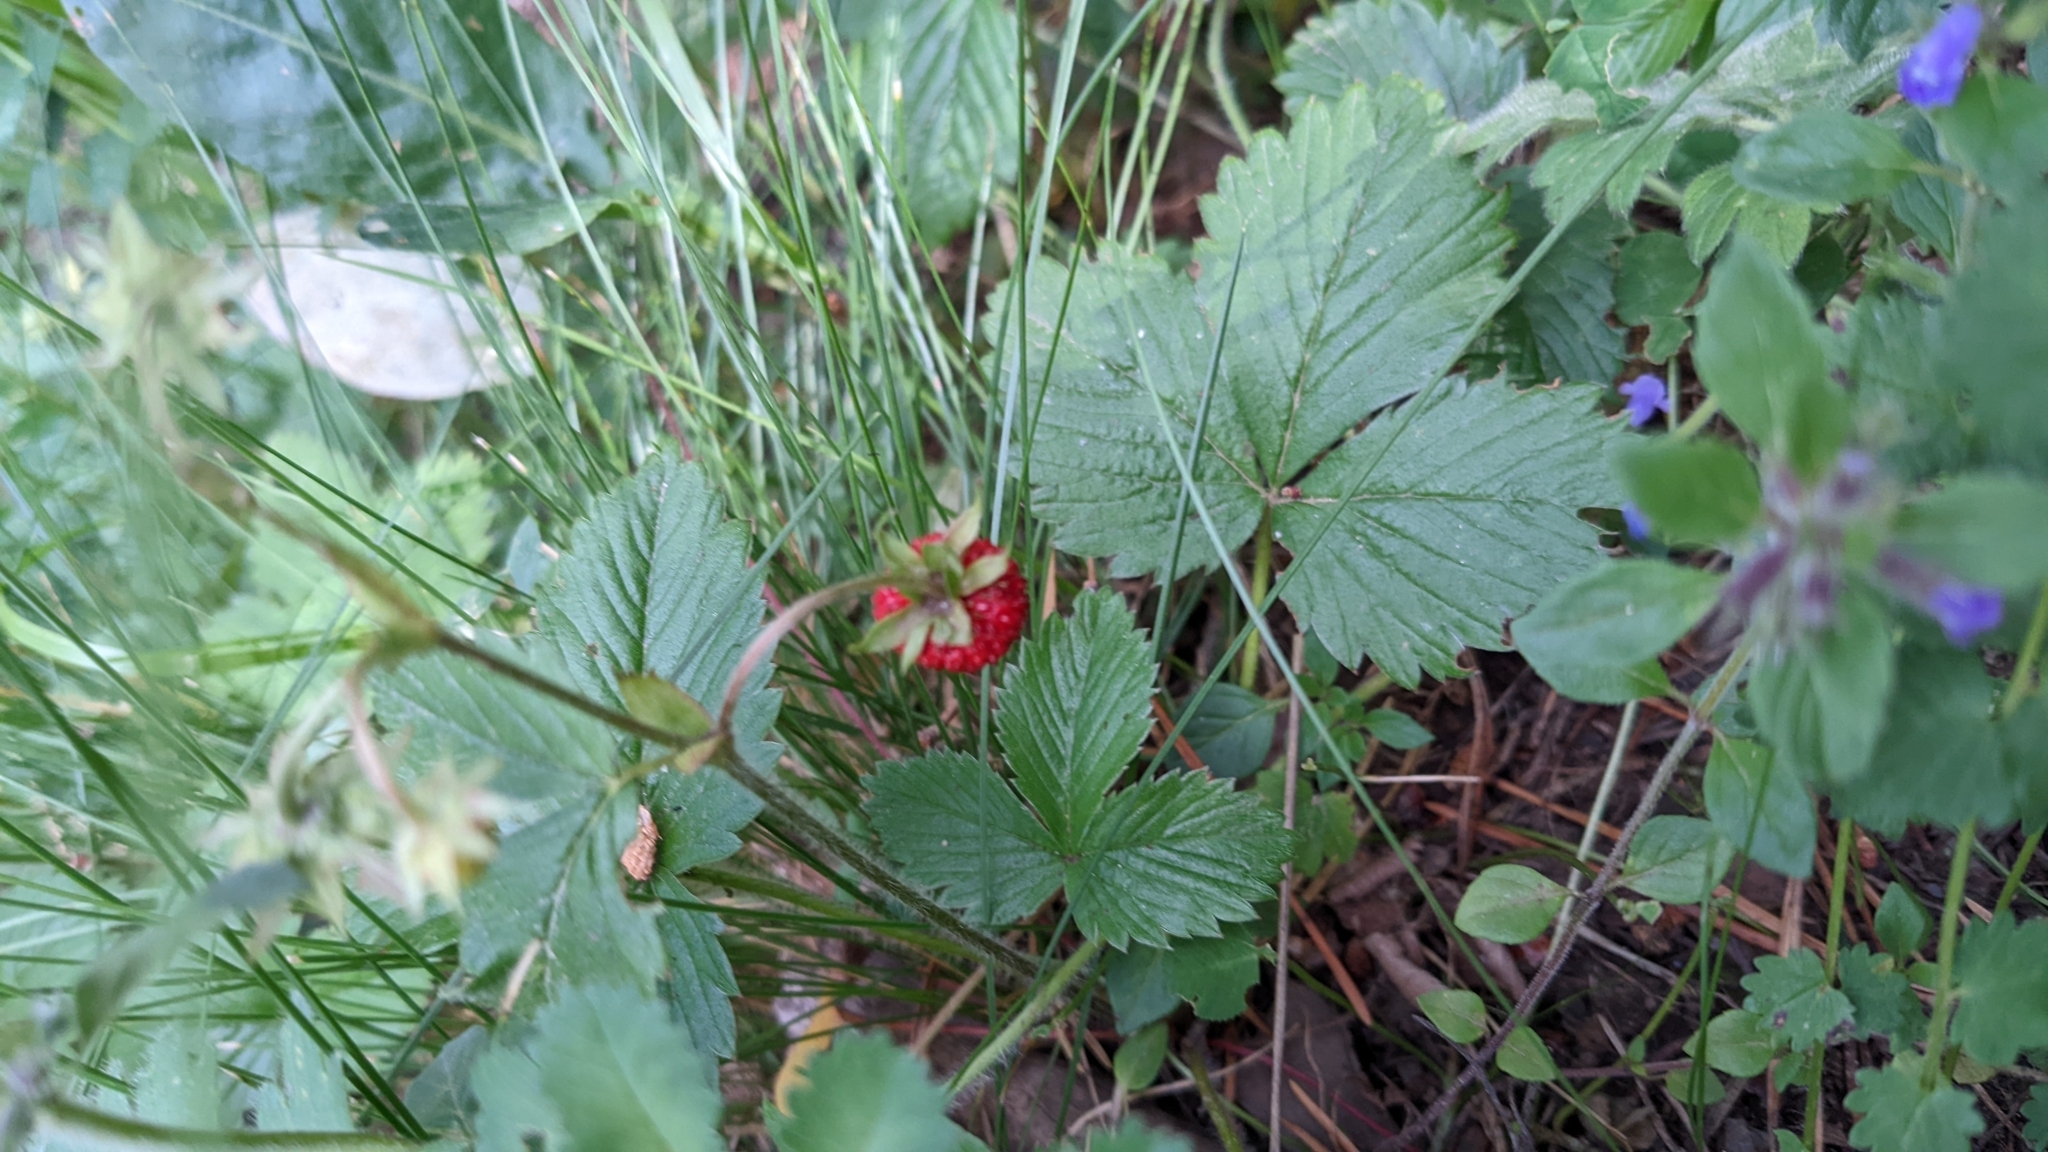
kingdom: Plantae
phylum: Tracheophyta
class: Magnoliopsida
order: Rosales
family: Rosaceae
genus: Fragaria
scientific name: Fragaria vesca
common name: Wild strawberry
